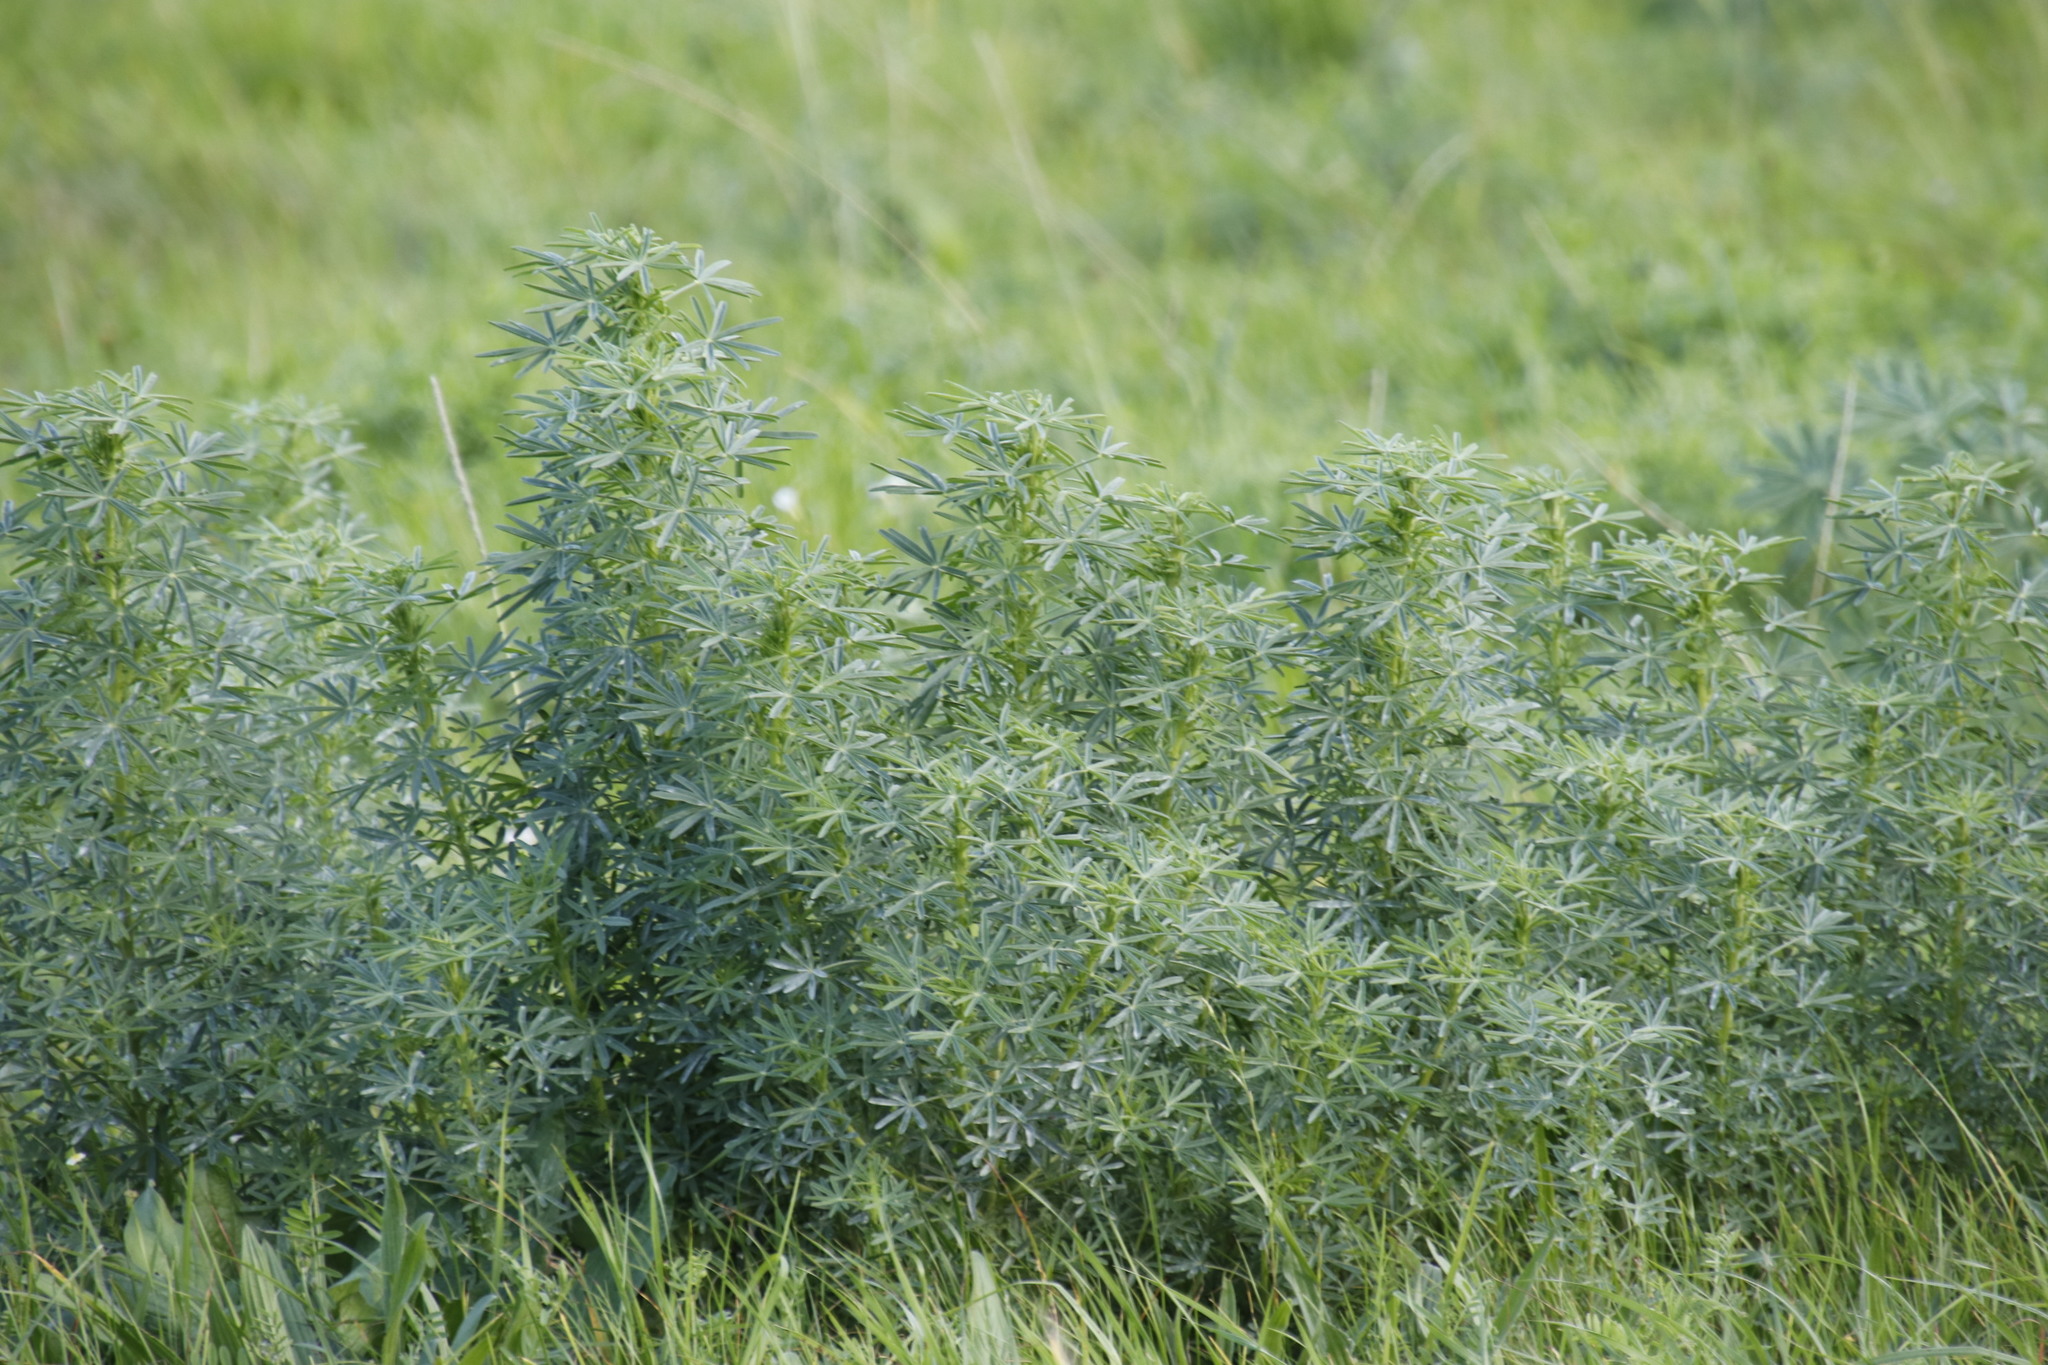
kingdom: Plantae
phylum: Tracheophyta
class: Magnoliopsida
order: Fabales
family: Fabaceae
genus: Lupinus
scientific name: Lupinus angustifolius
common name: Narrow-leaved lupin
